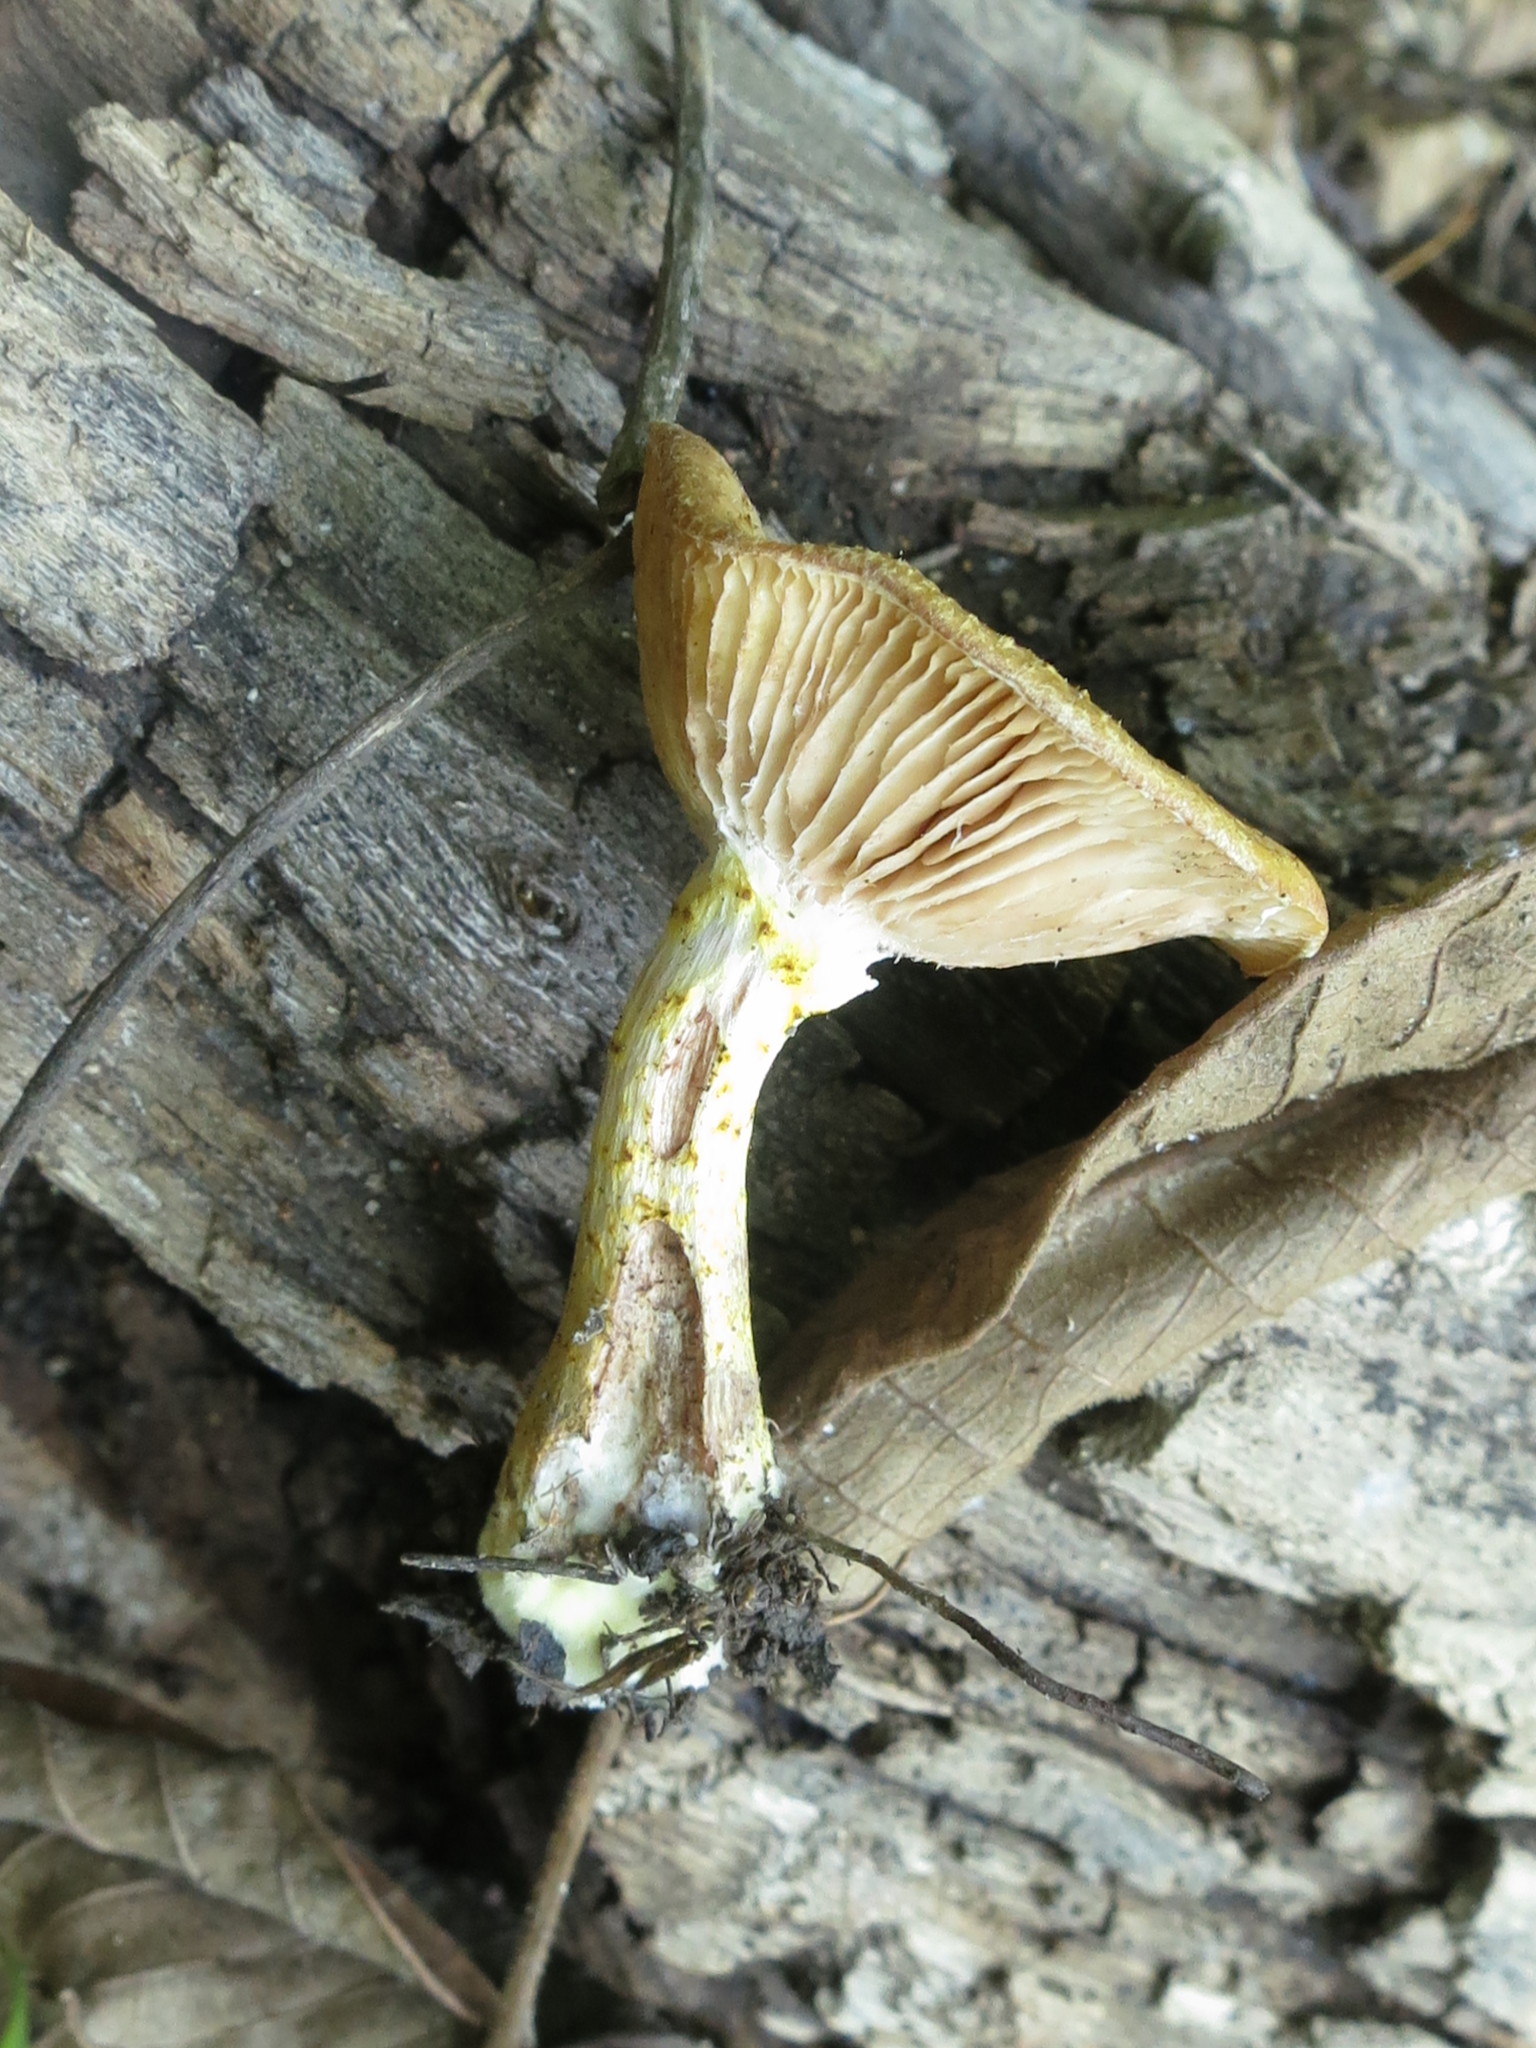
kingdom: Fungi
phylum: Basidiomycota
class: Agaricomycetes
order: Agaricales
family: Physalacriaceae
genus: Armillaria
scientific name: Armillaria mellea
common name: Honey fungus
